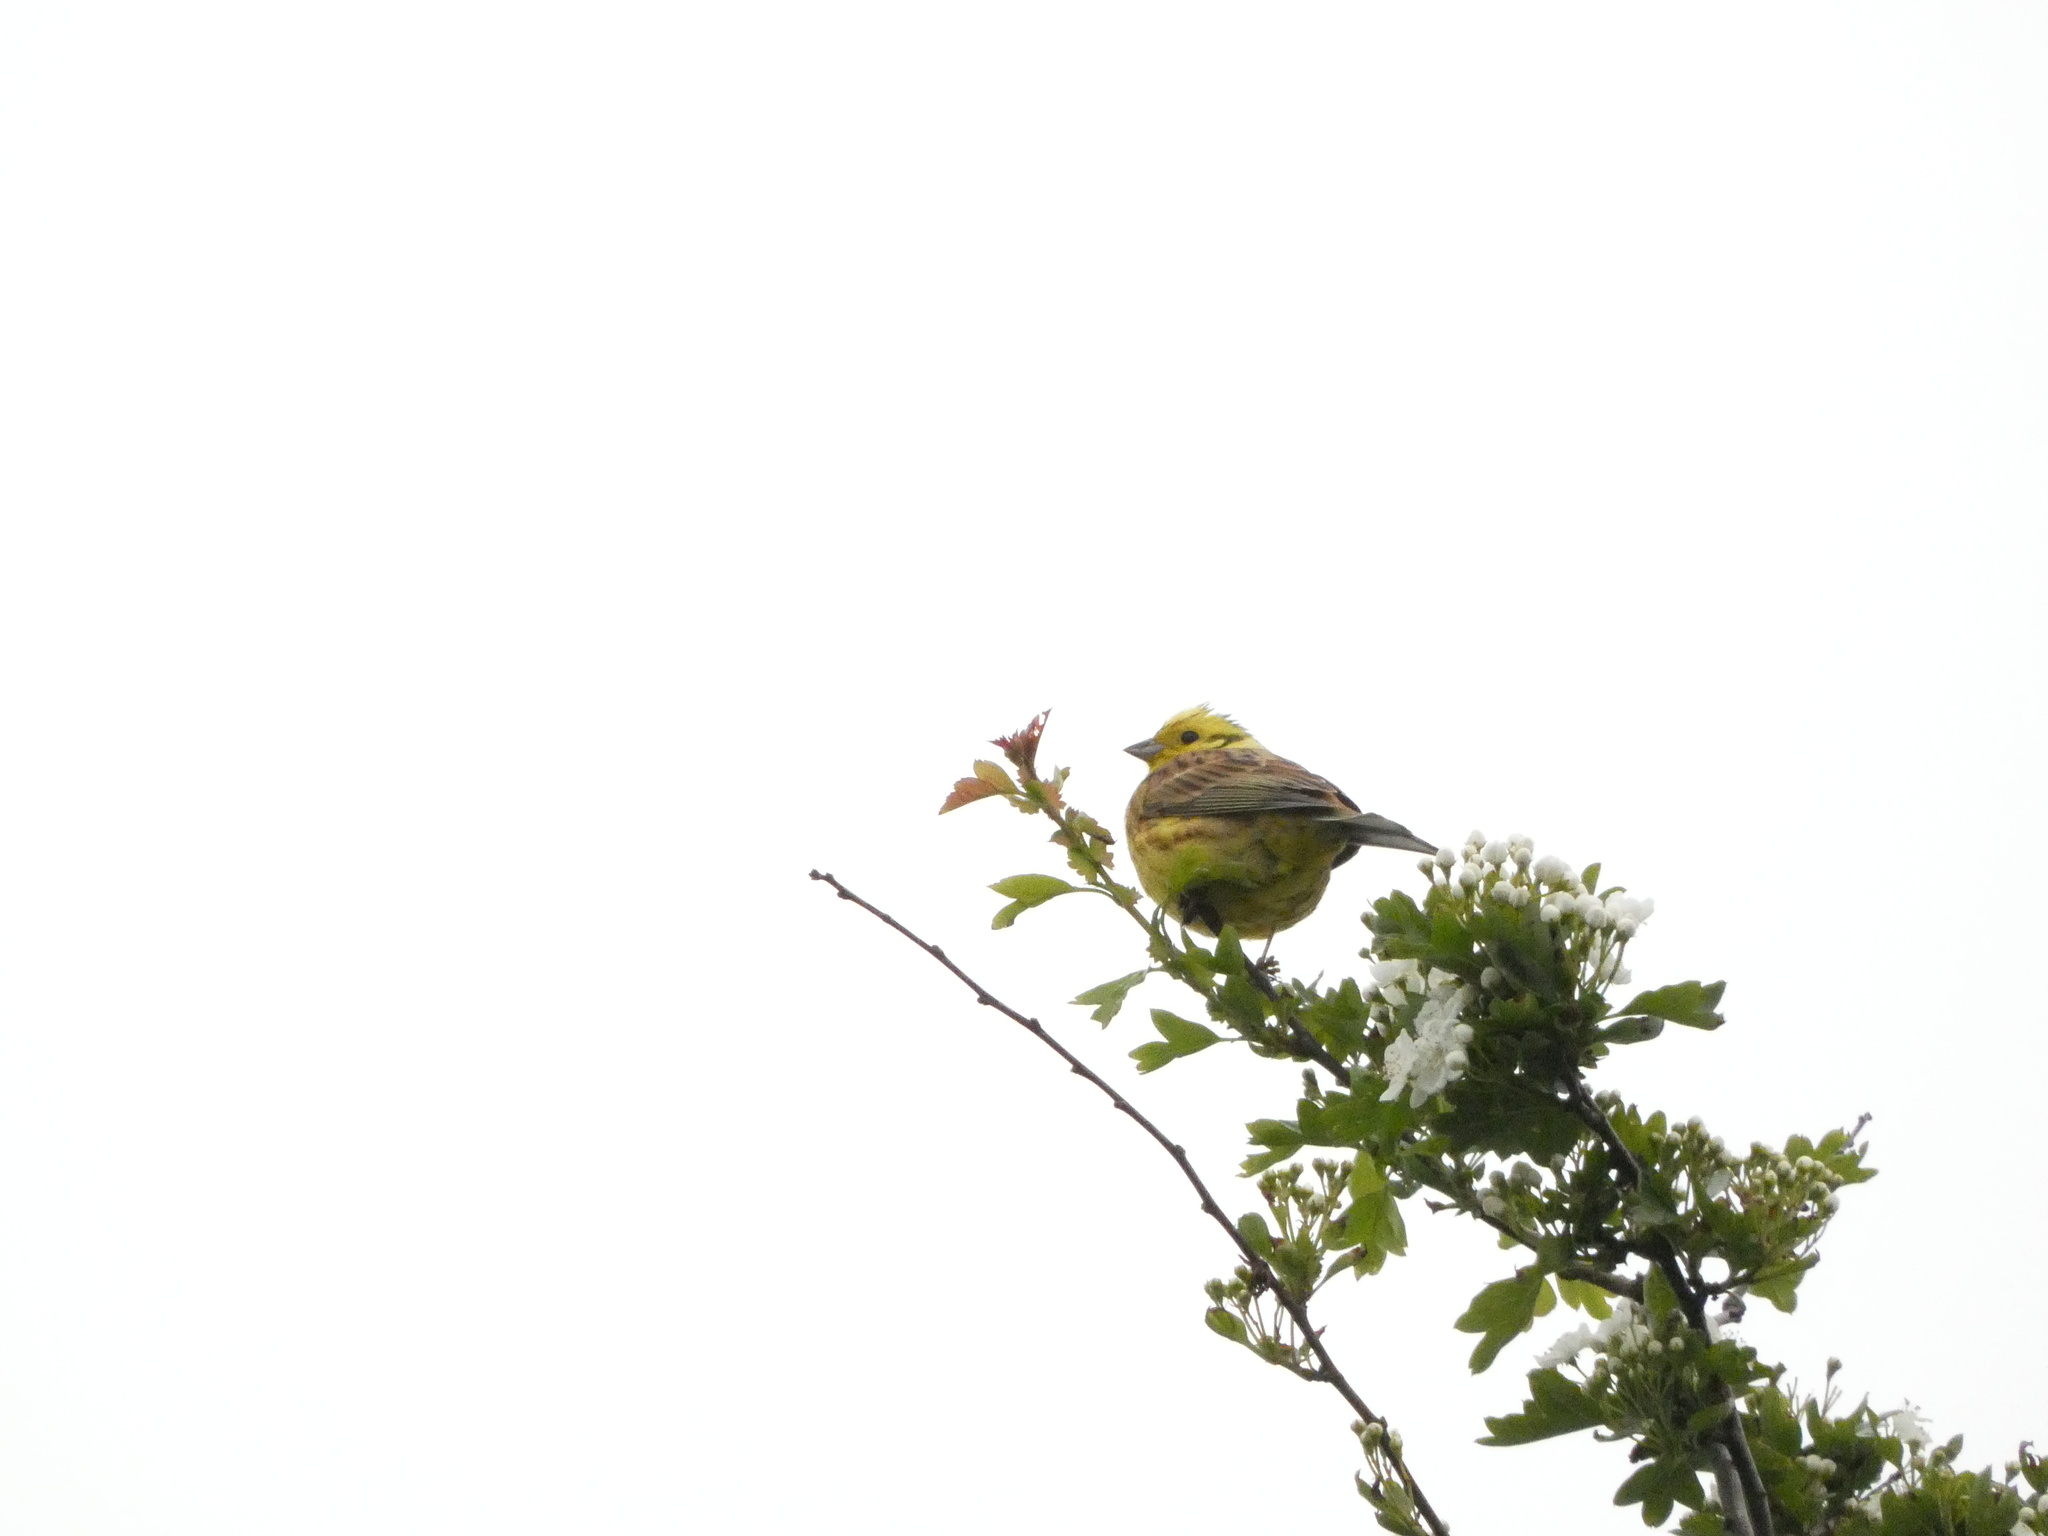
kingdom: Animalia
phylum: Chordata
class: Aves
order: Passeriformes
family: Emberizidae
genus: Emberiza
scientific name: Emberiza citrinella
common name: Yellowhammer
